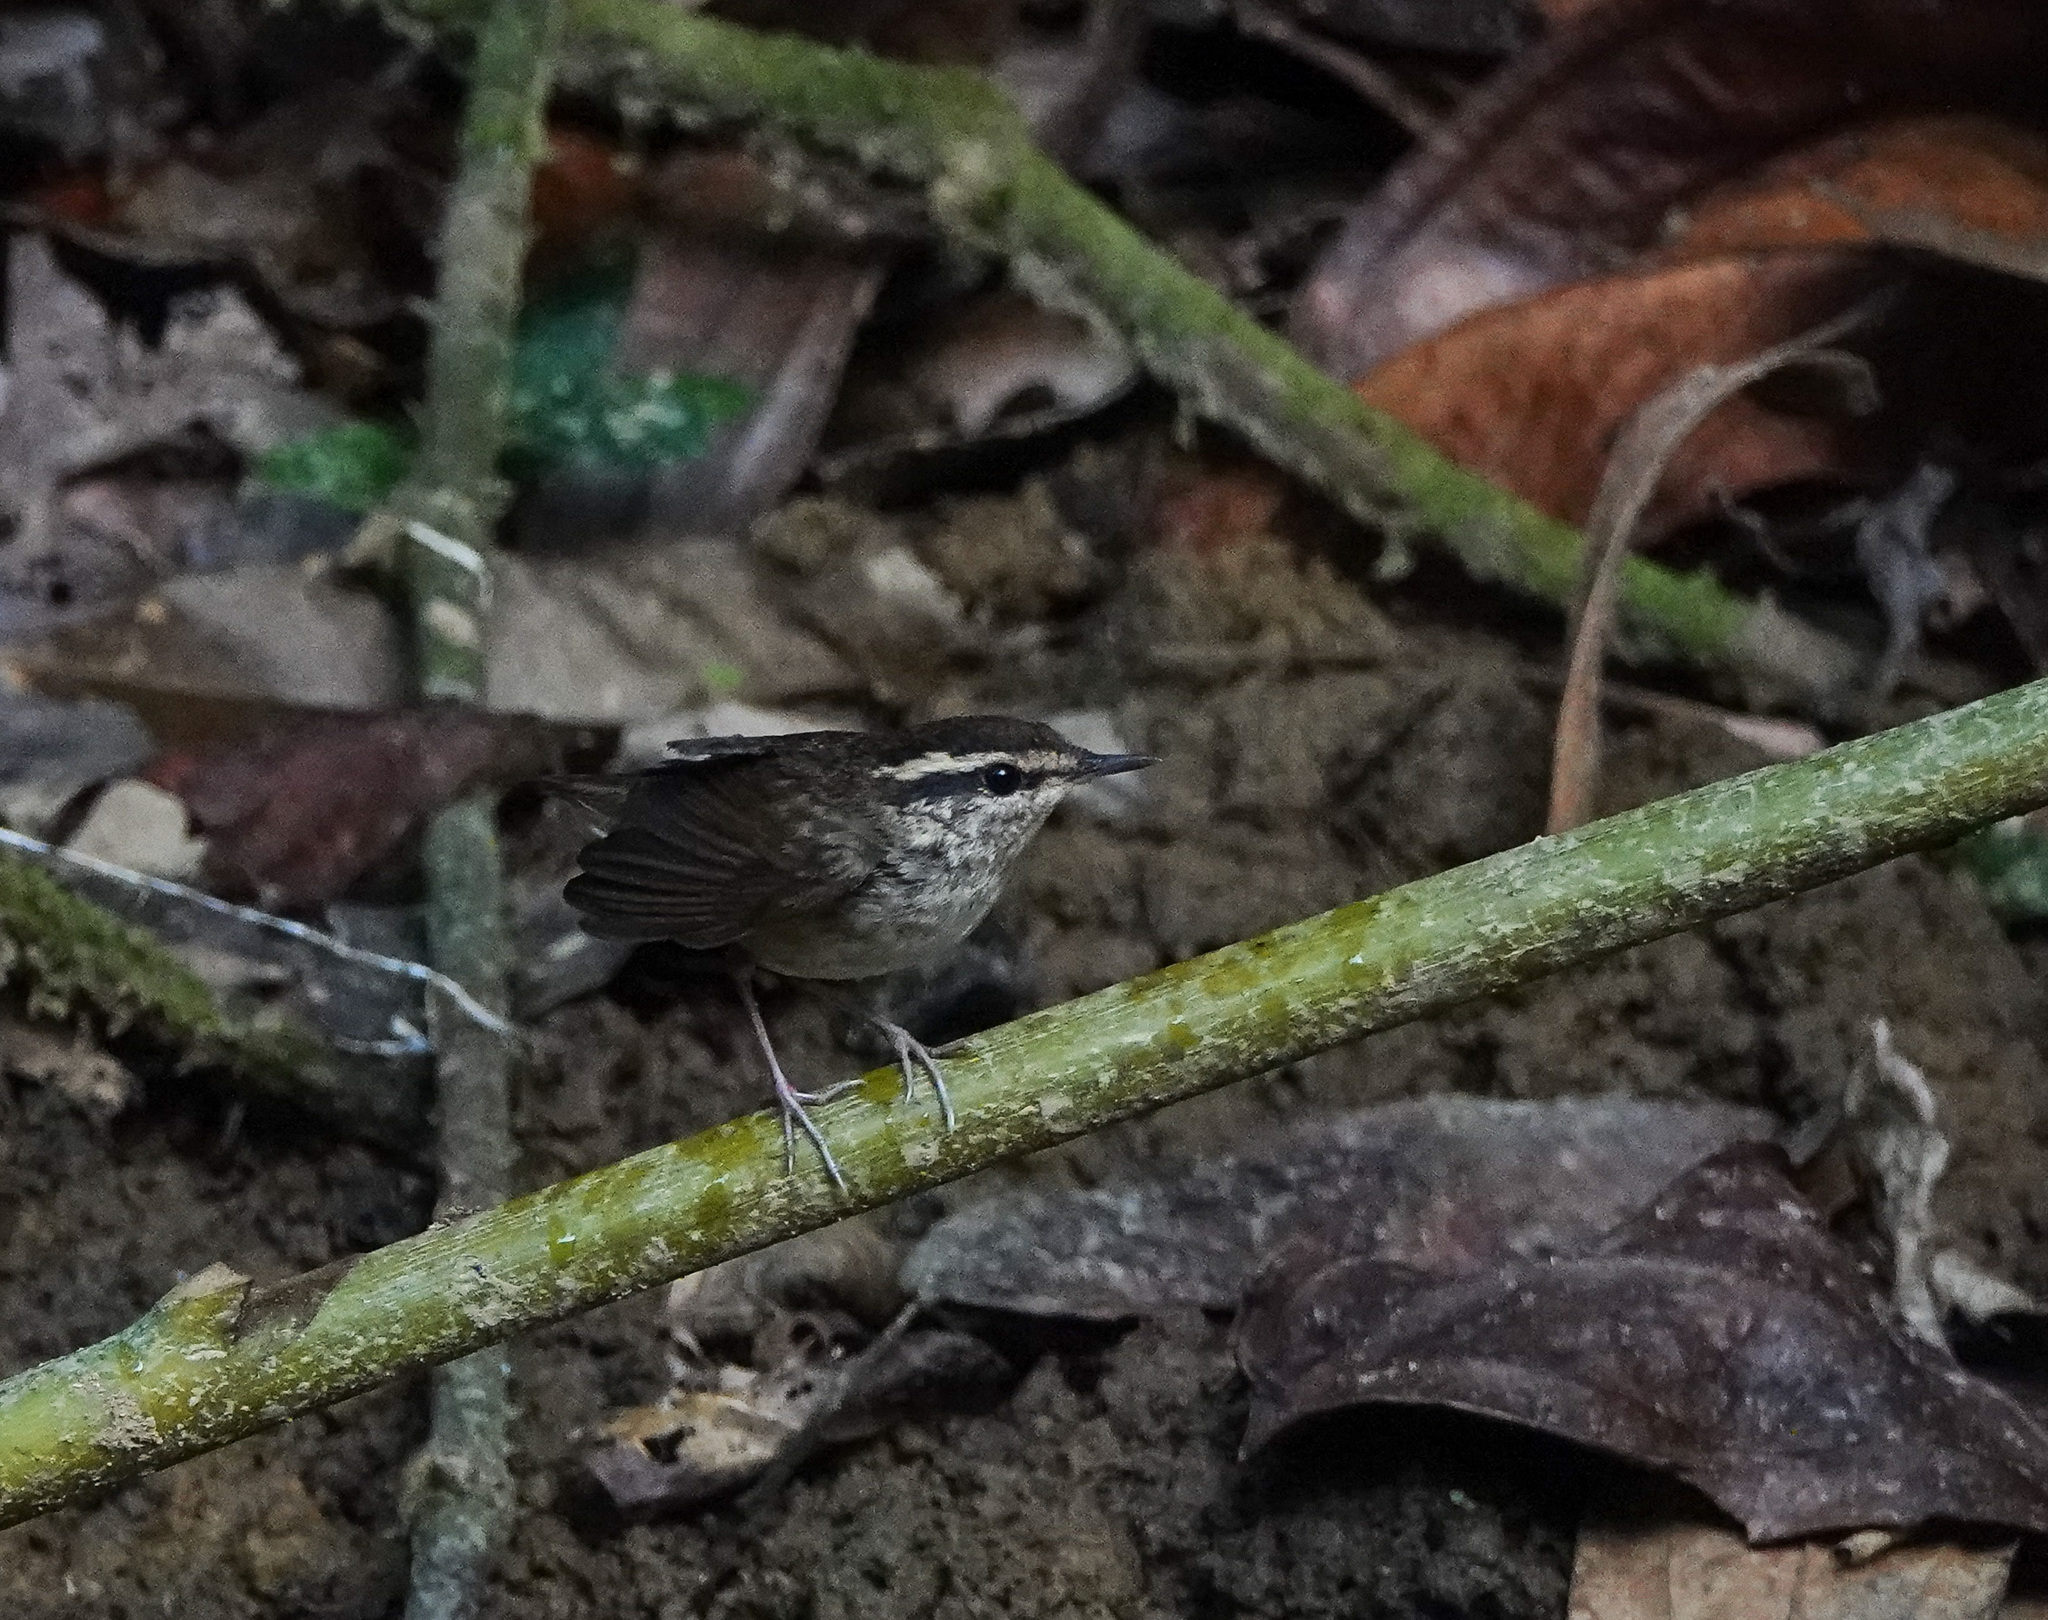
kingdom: Animalia
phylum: Chordata
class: Aves
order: Passeriformes
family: Cettiidae
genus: Urosphena
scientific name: Urosphena squameiceps
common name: Asian stubtail
